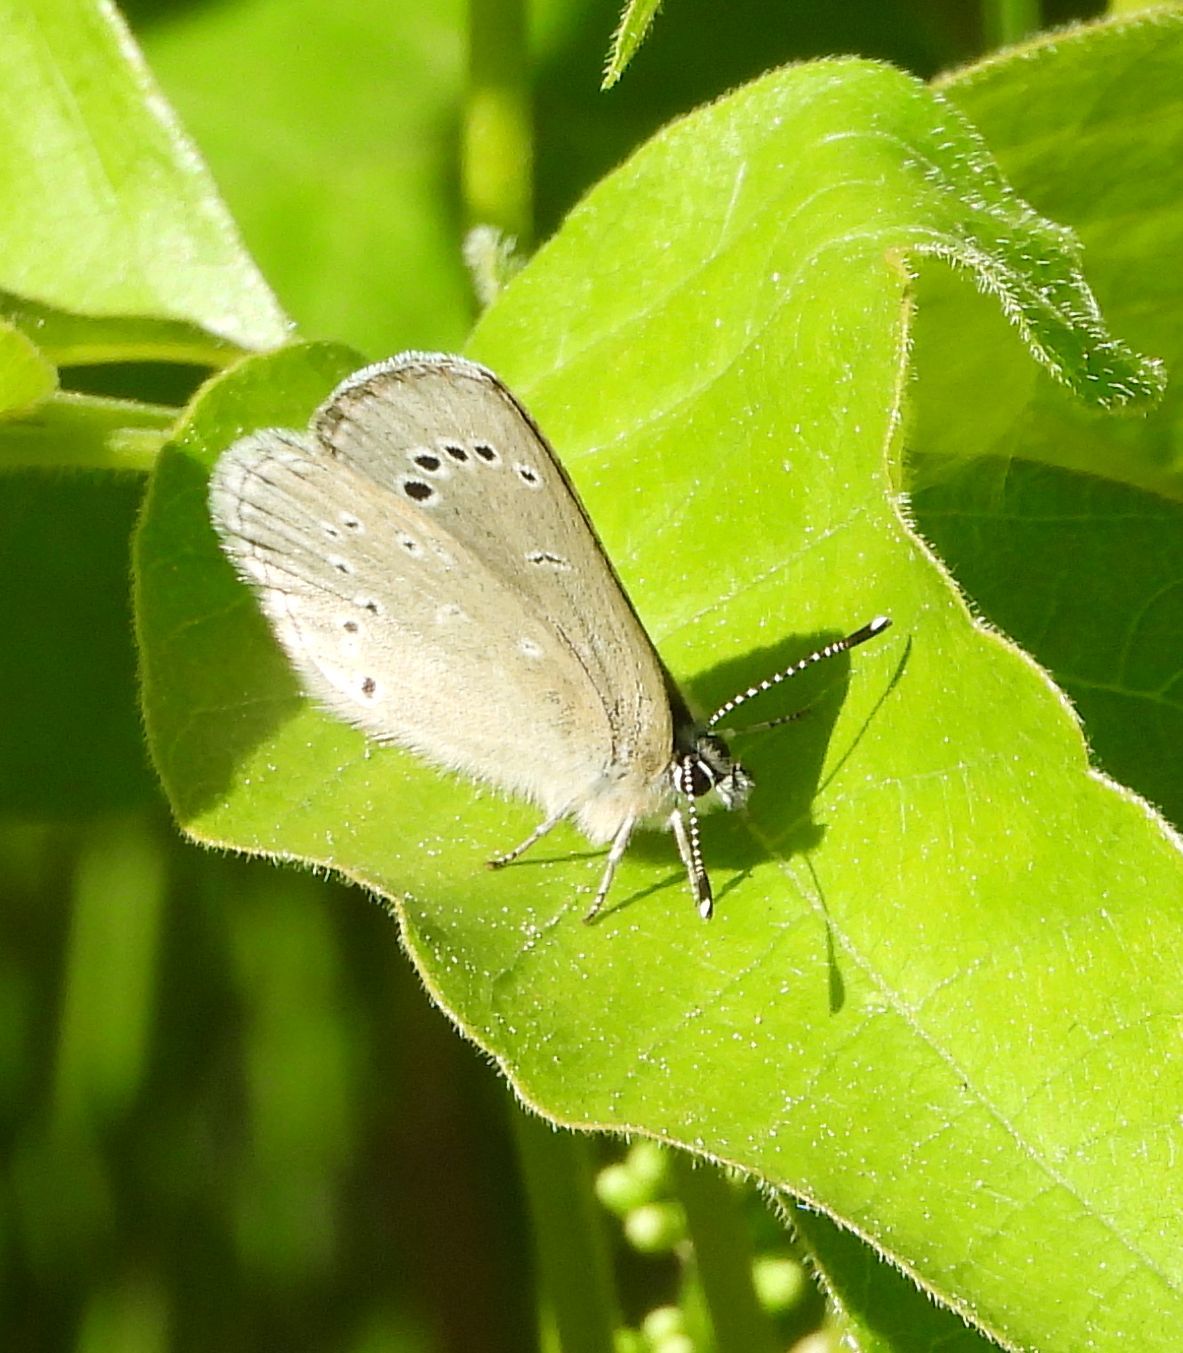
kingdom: Animalia
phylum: Arthropoda
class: Insecta
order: Lepidoptera
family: Lycaenidae
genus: Glaucopsyche
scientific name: Glaucopsyche lygdamus
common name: Silvery blue
